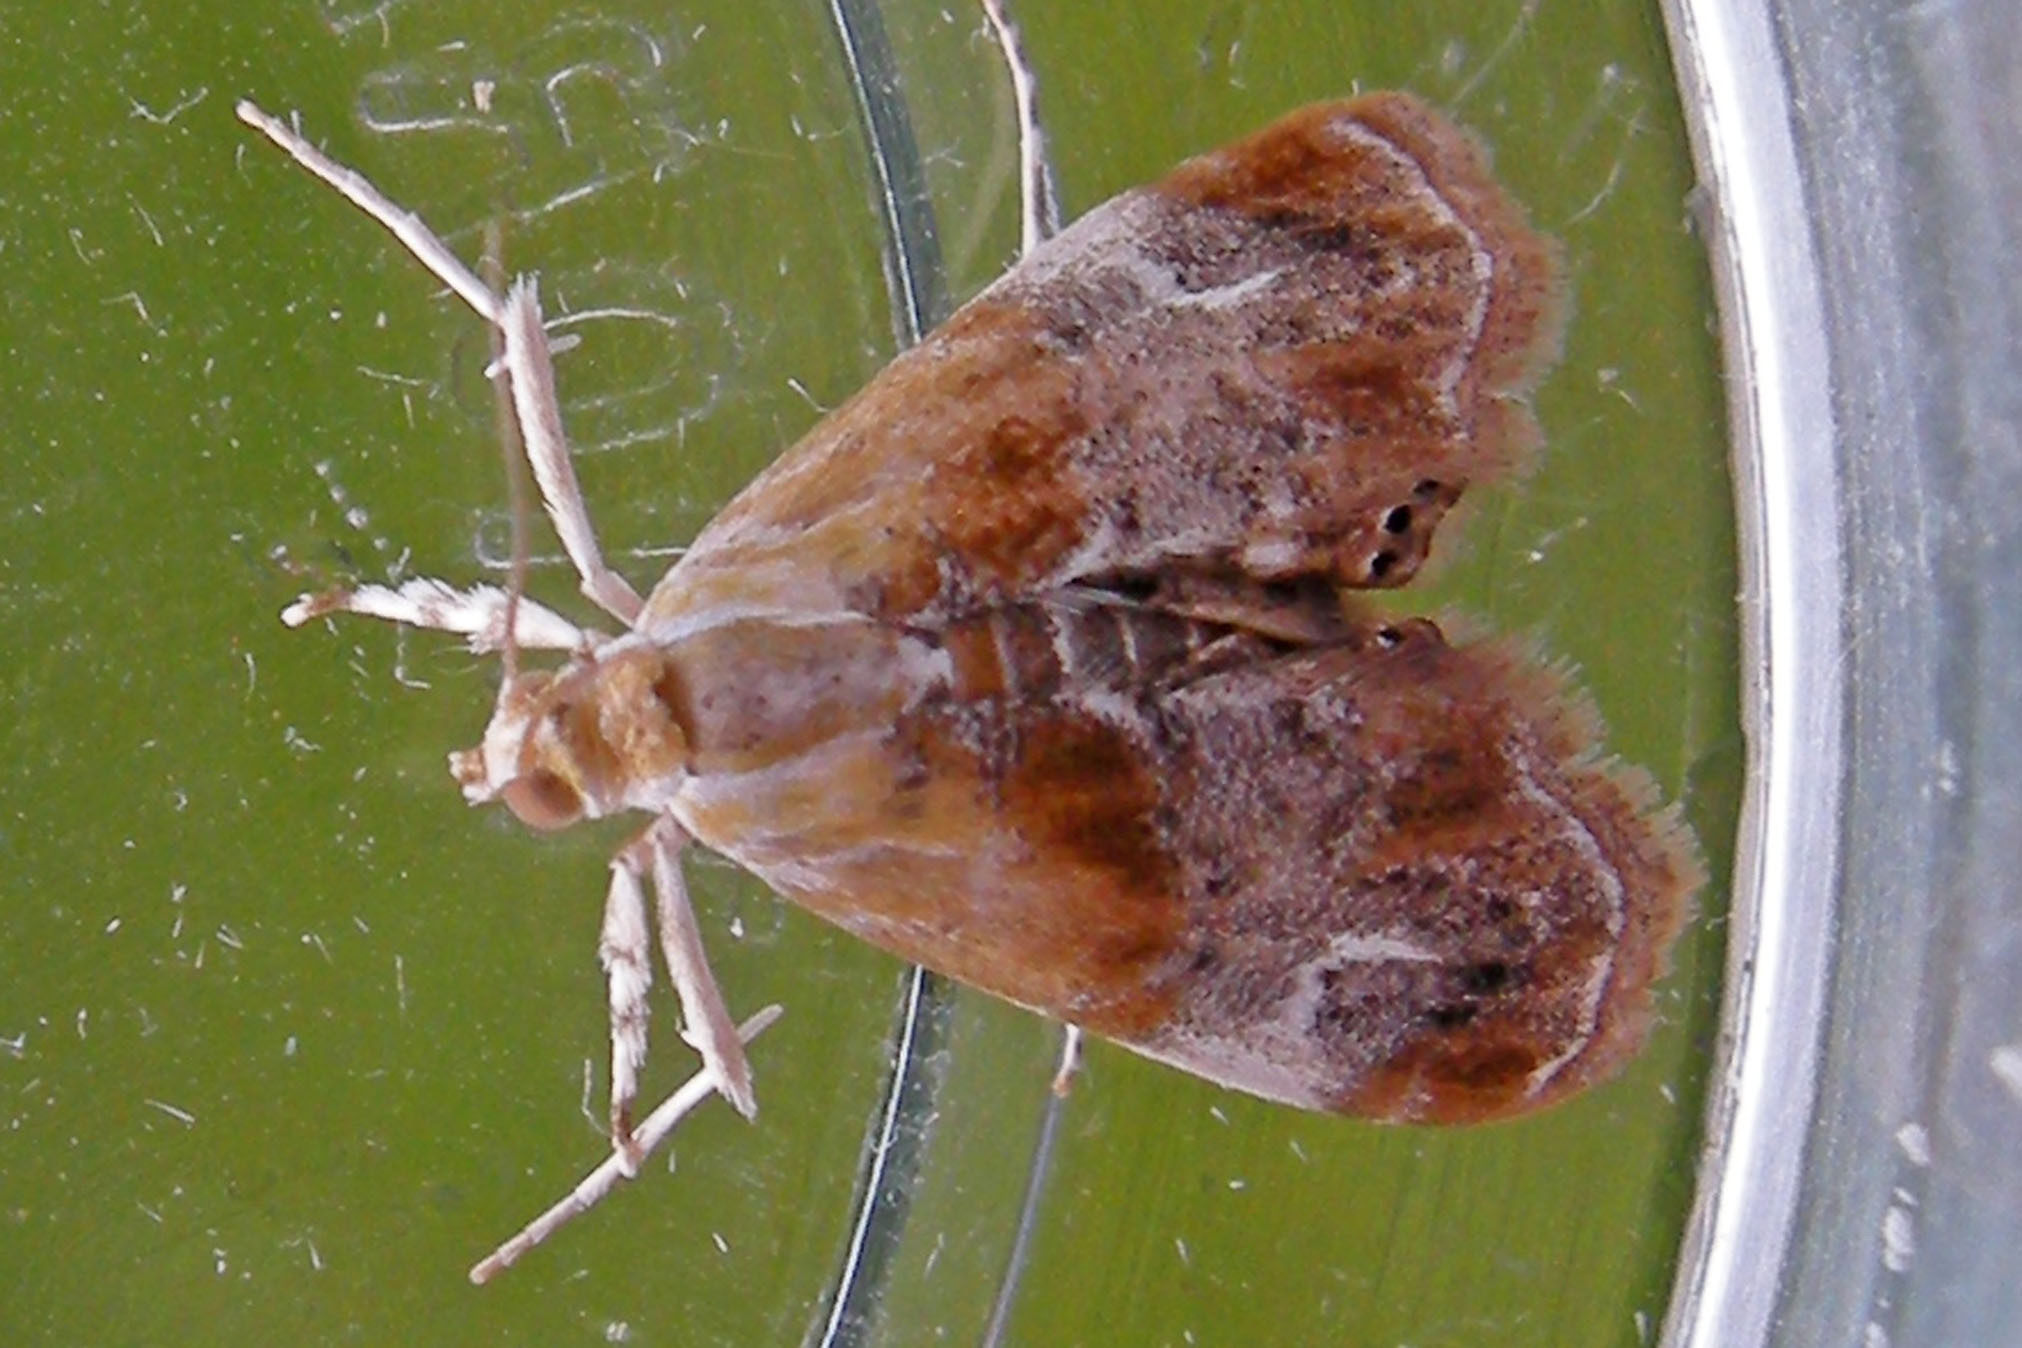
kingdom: Animalia
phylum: Arthropoda
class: Insecta
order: Lepidoptera
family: Crambidae
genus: Dicymolomia
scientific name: Dicymolomia julianalis
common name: Julia's dicymolomia moth
